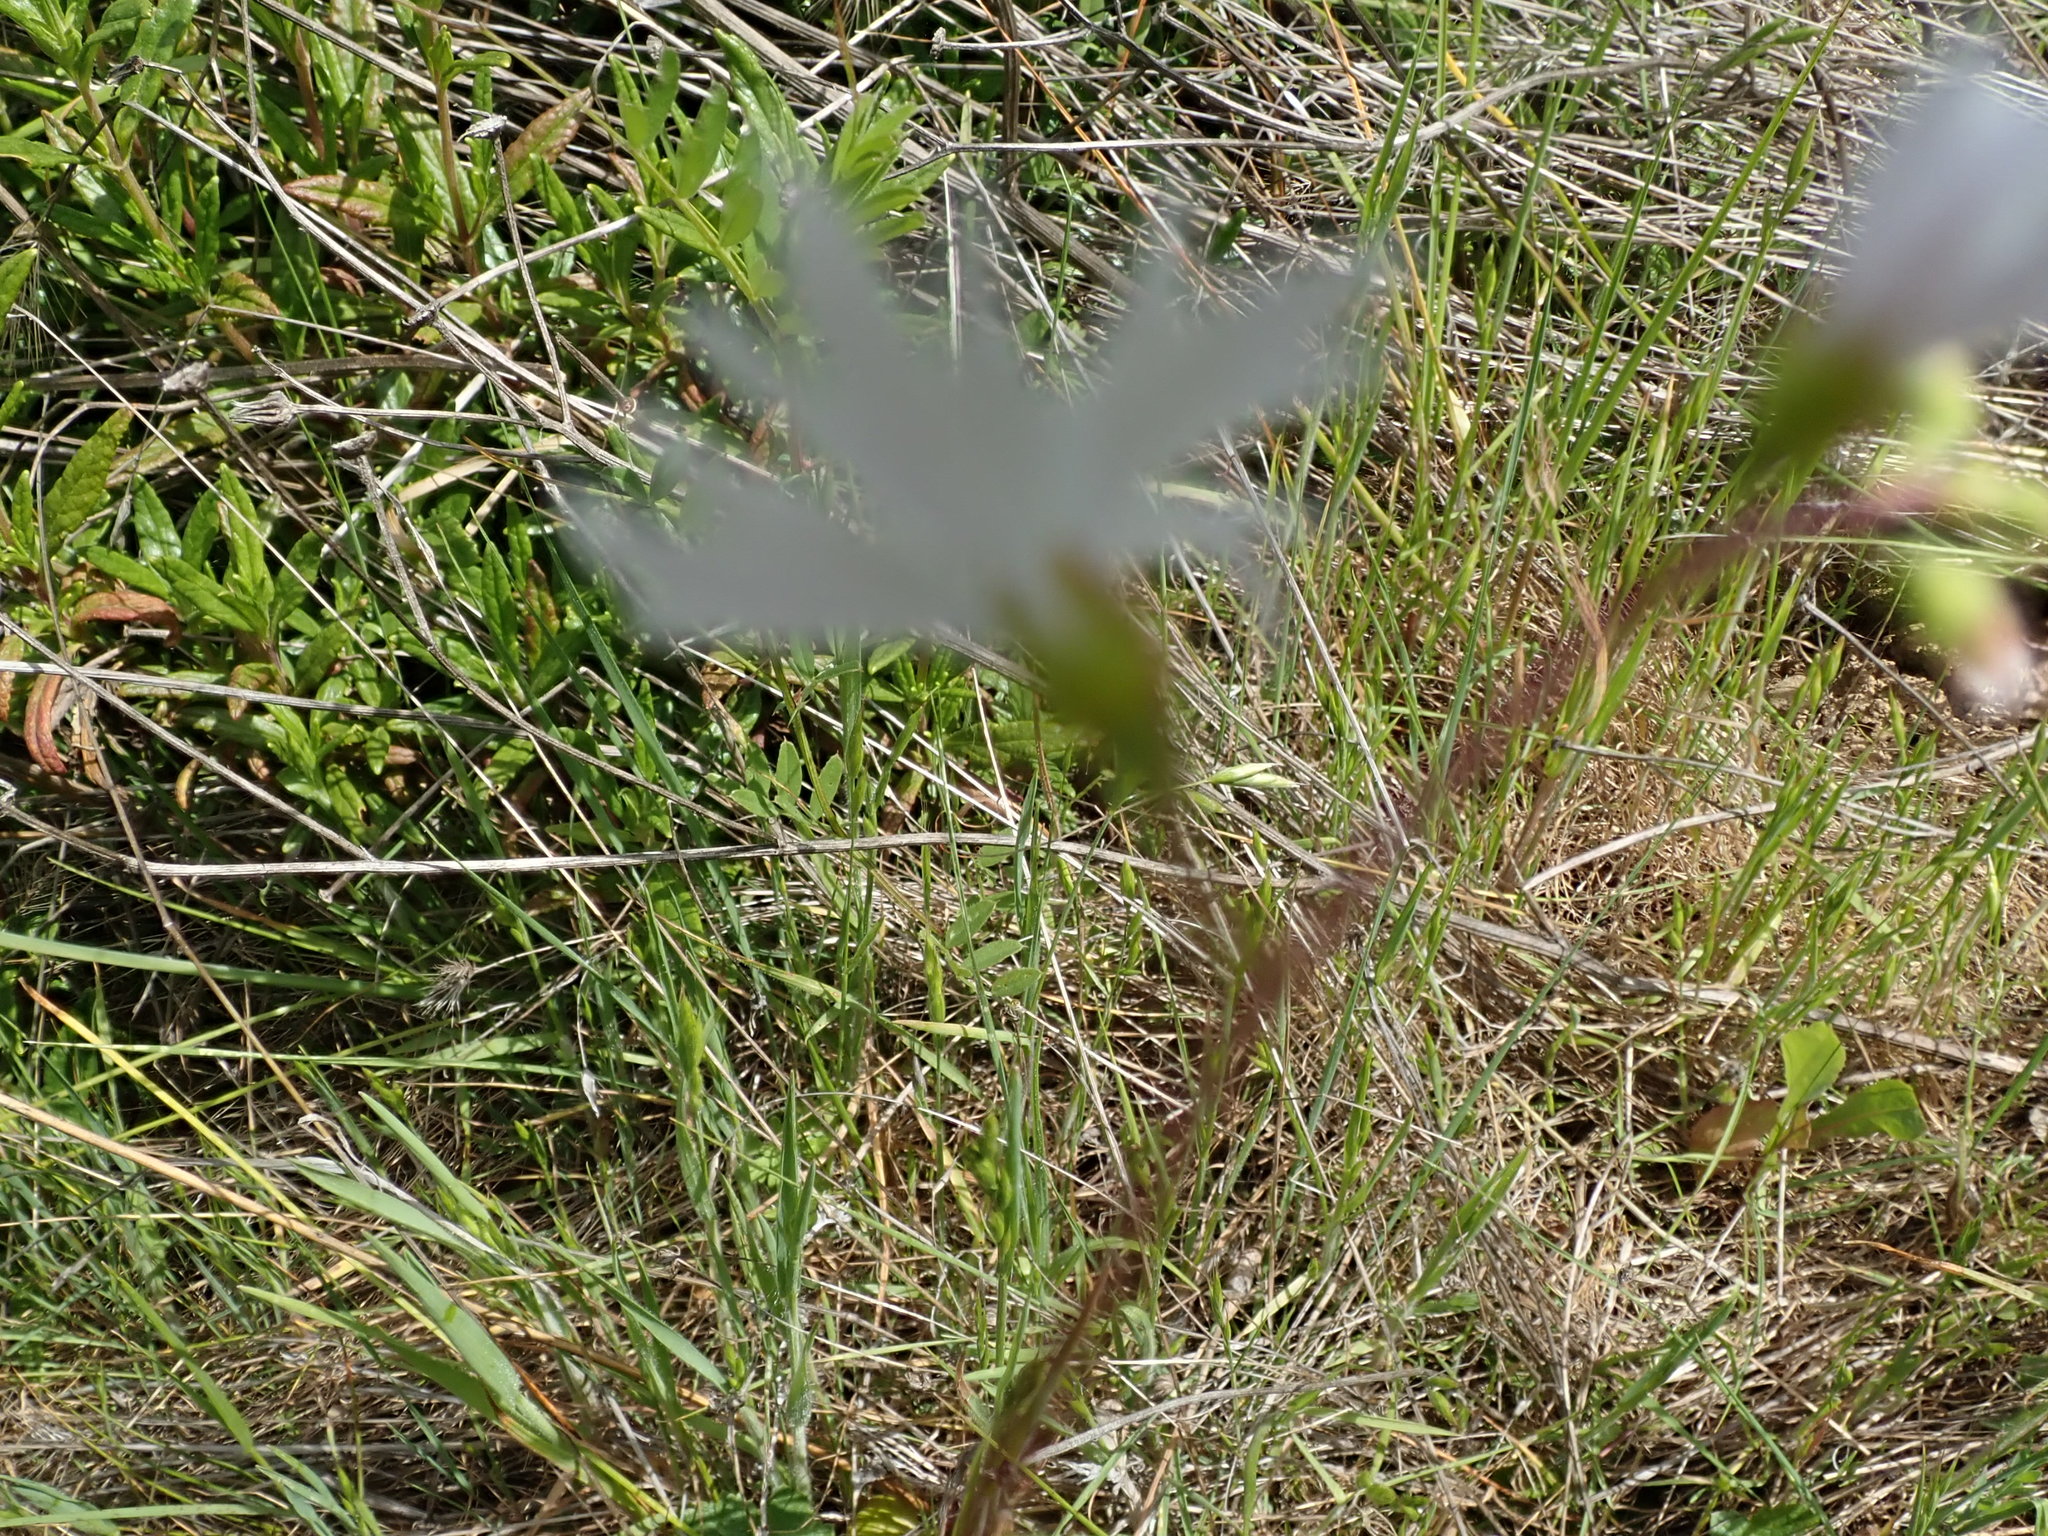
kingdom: Plantae
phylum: Tracheophyta
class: Magnoliopsida
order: Saxifragales
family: Saxifragaceae
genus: Lithophragma
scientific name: Lithophragma affine
